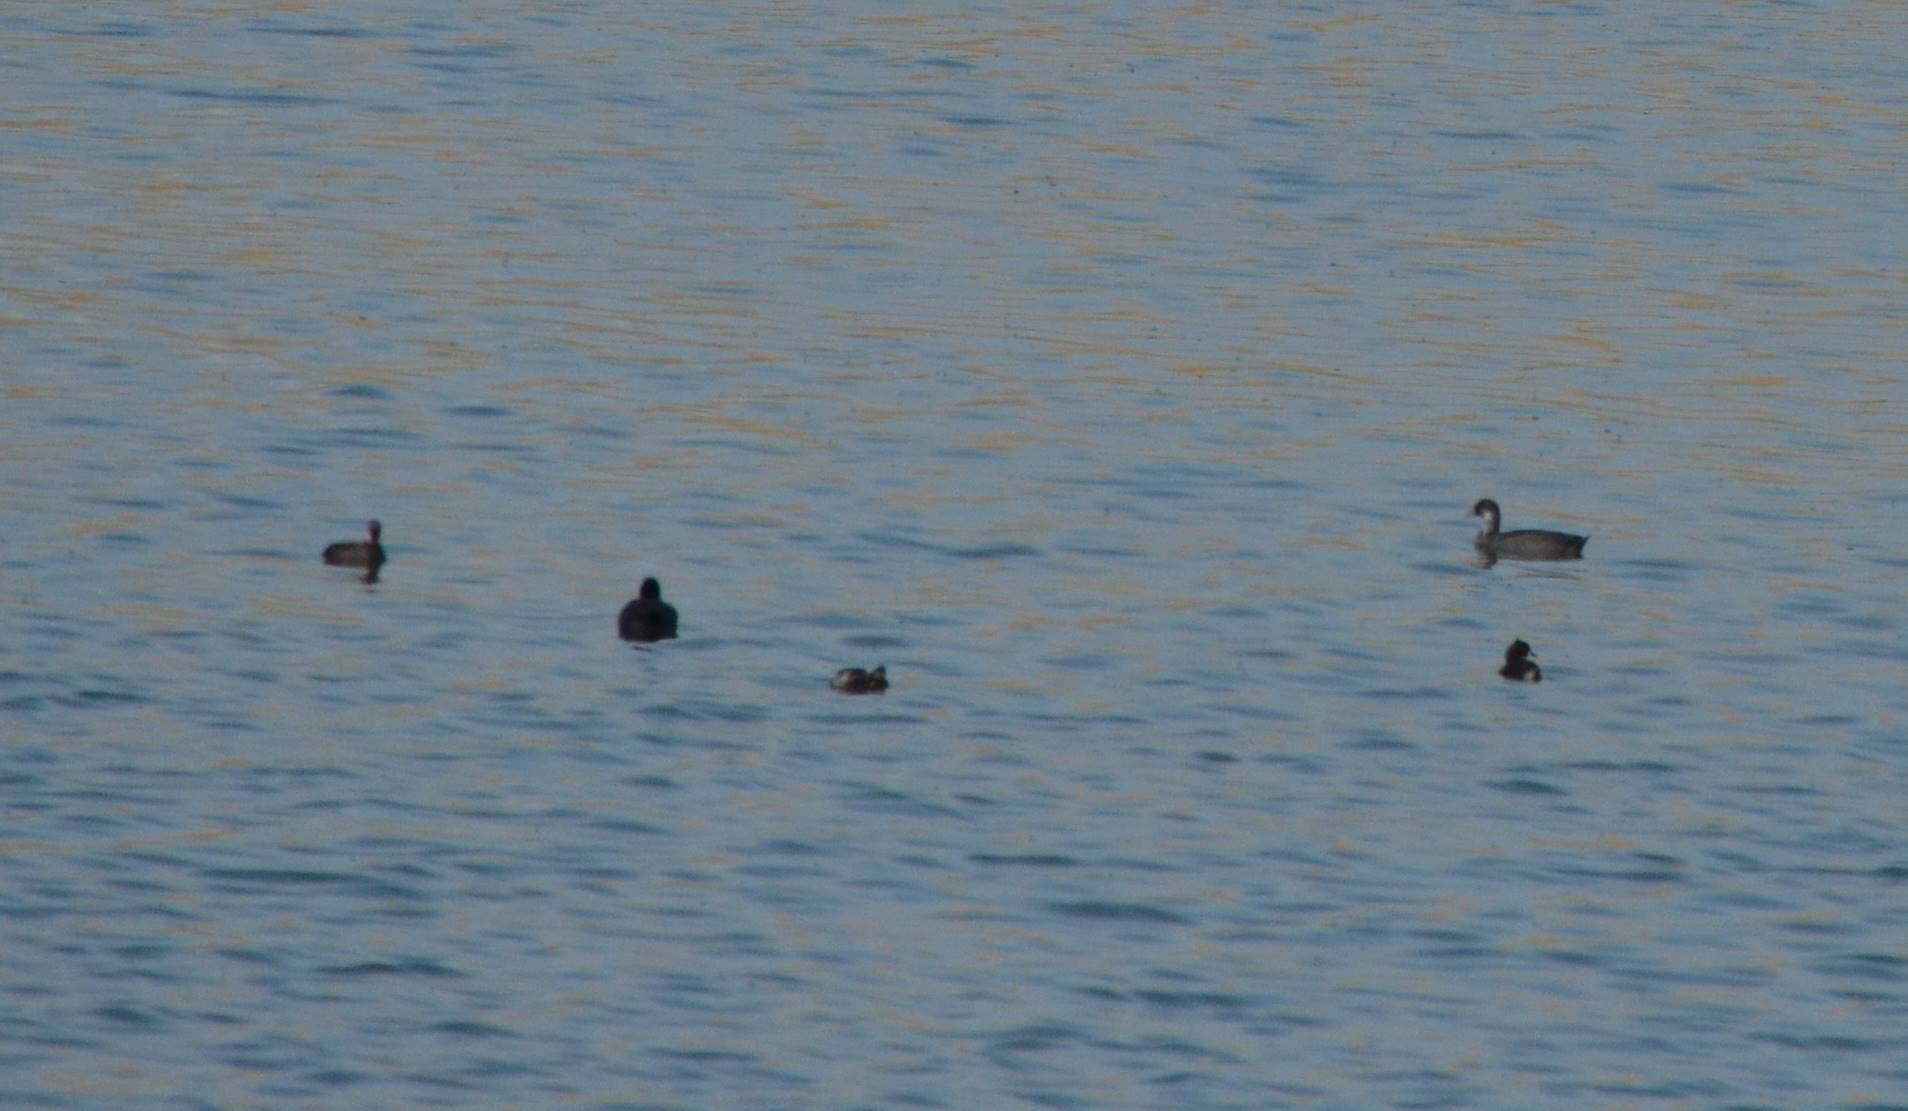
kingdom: Animalia
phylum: Chordata
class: Aves
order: Gruiformes
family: Rallidae
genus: Fulica
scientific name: Fulica atra
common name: Eurasian coot
